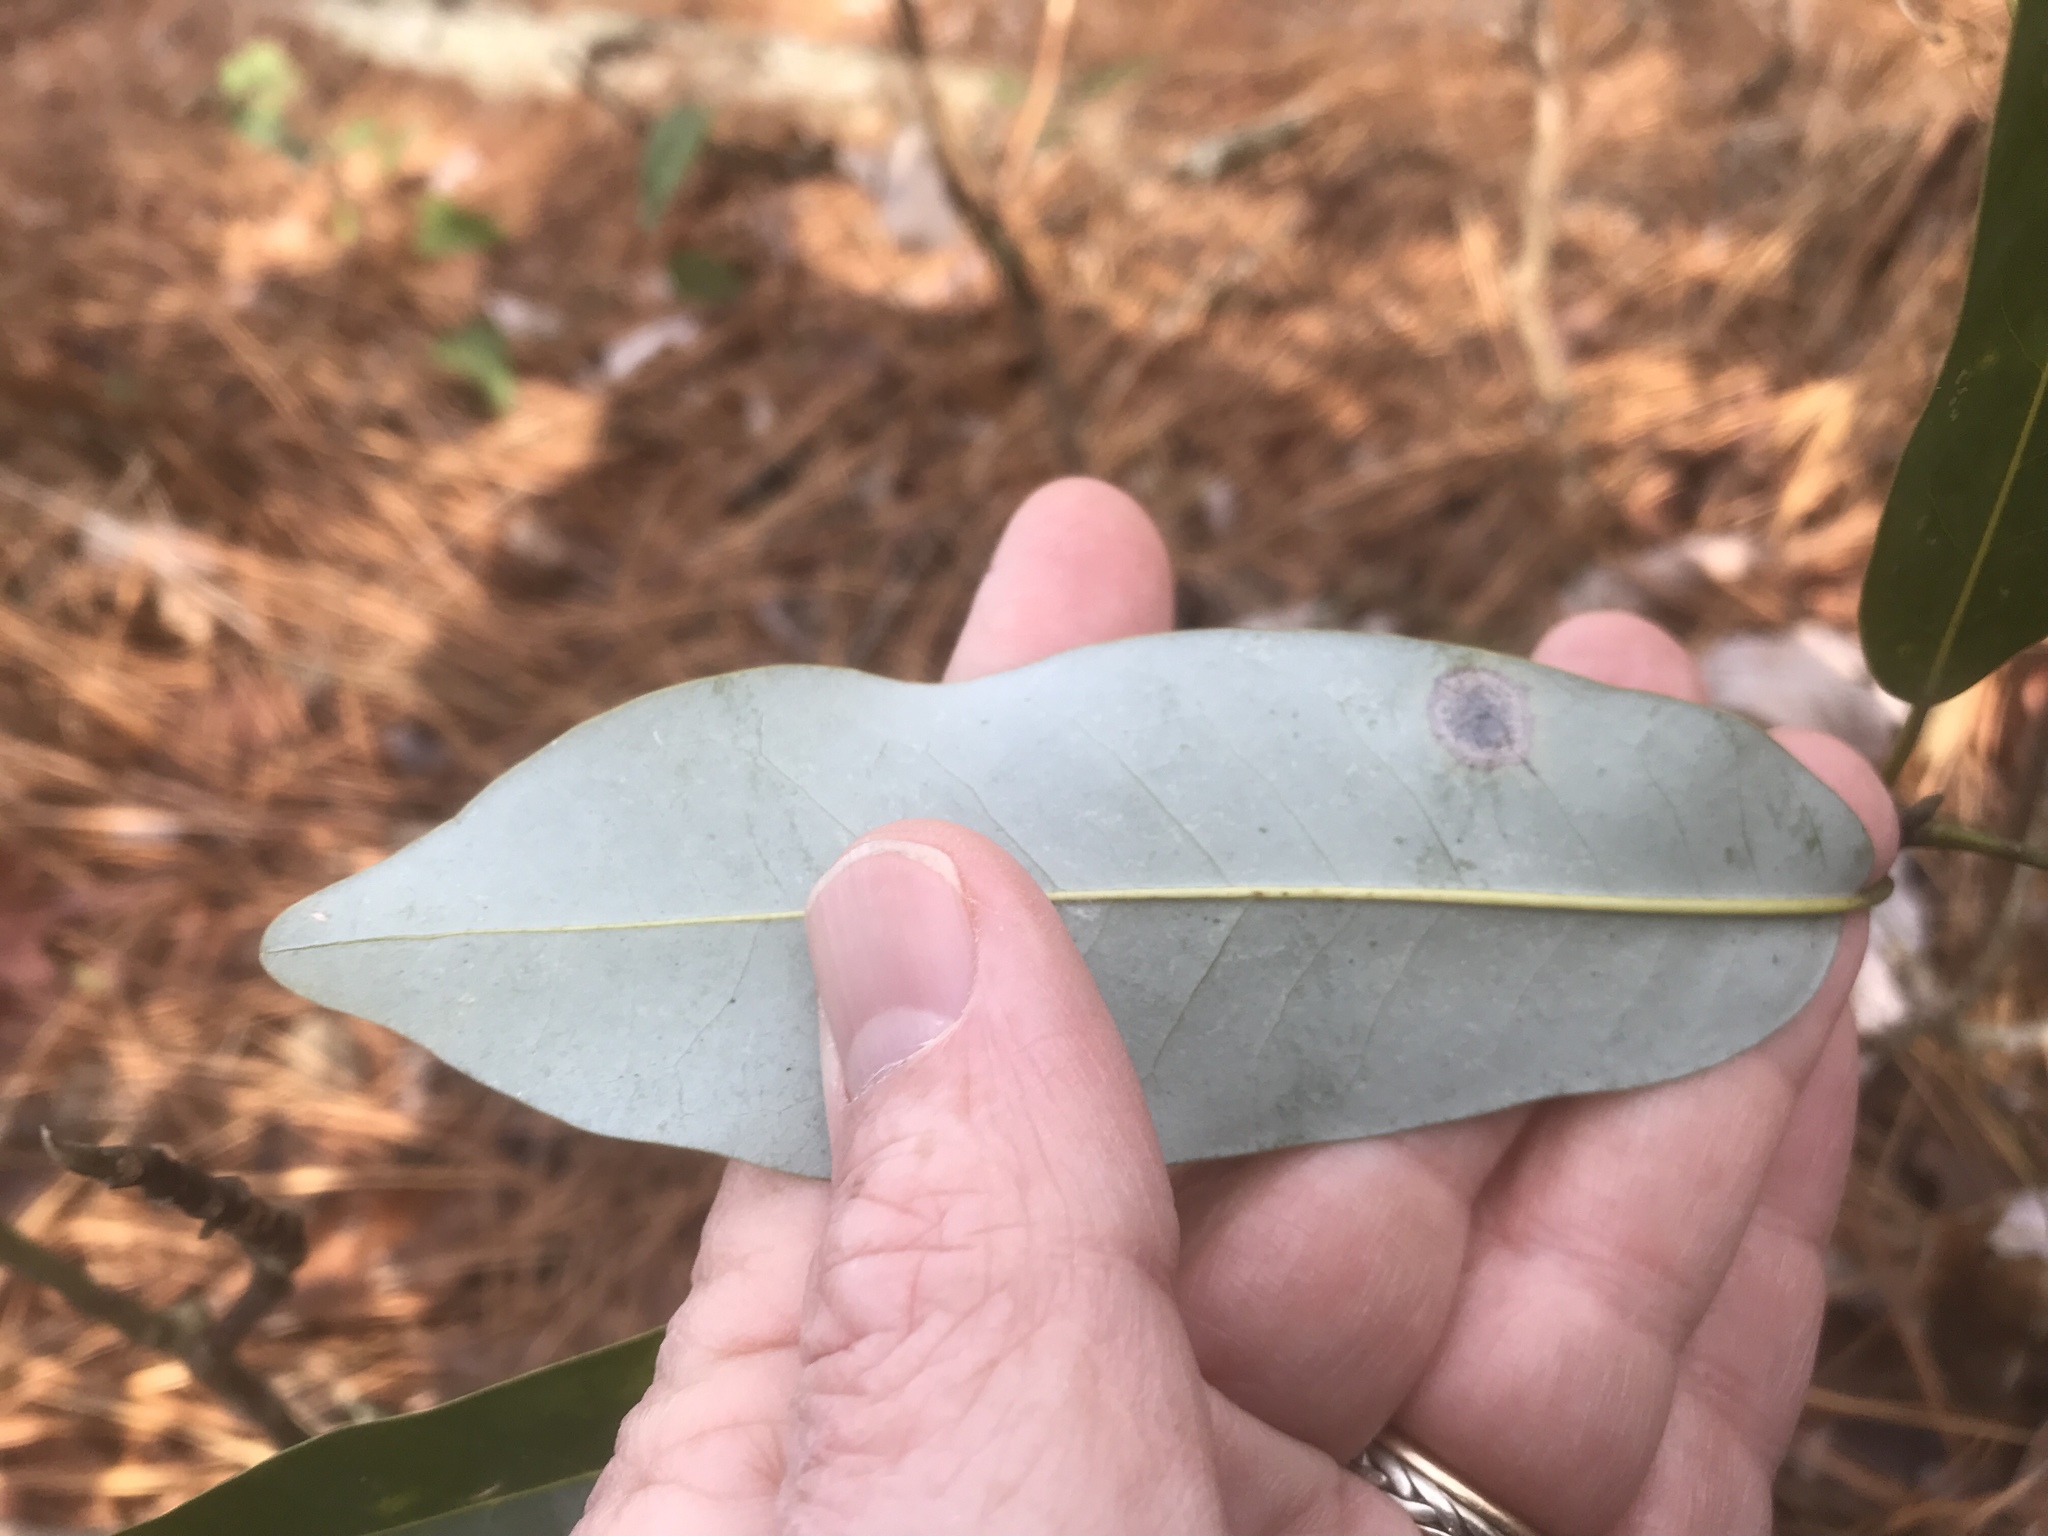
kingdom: Plantae
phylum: Tracheophyta
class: Magnoliopsida
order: Magnoliales
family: Magnoliaceae
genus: Magnolia
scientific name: Magnolia virginiana
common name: Swamp bay
